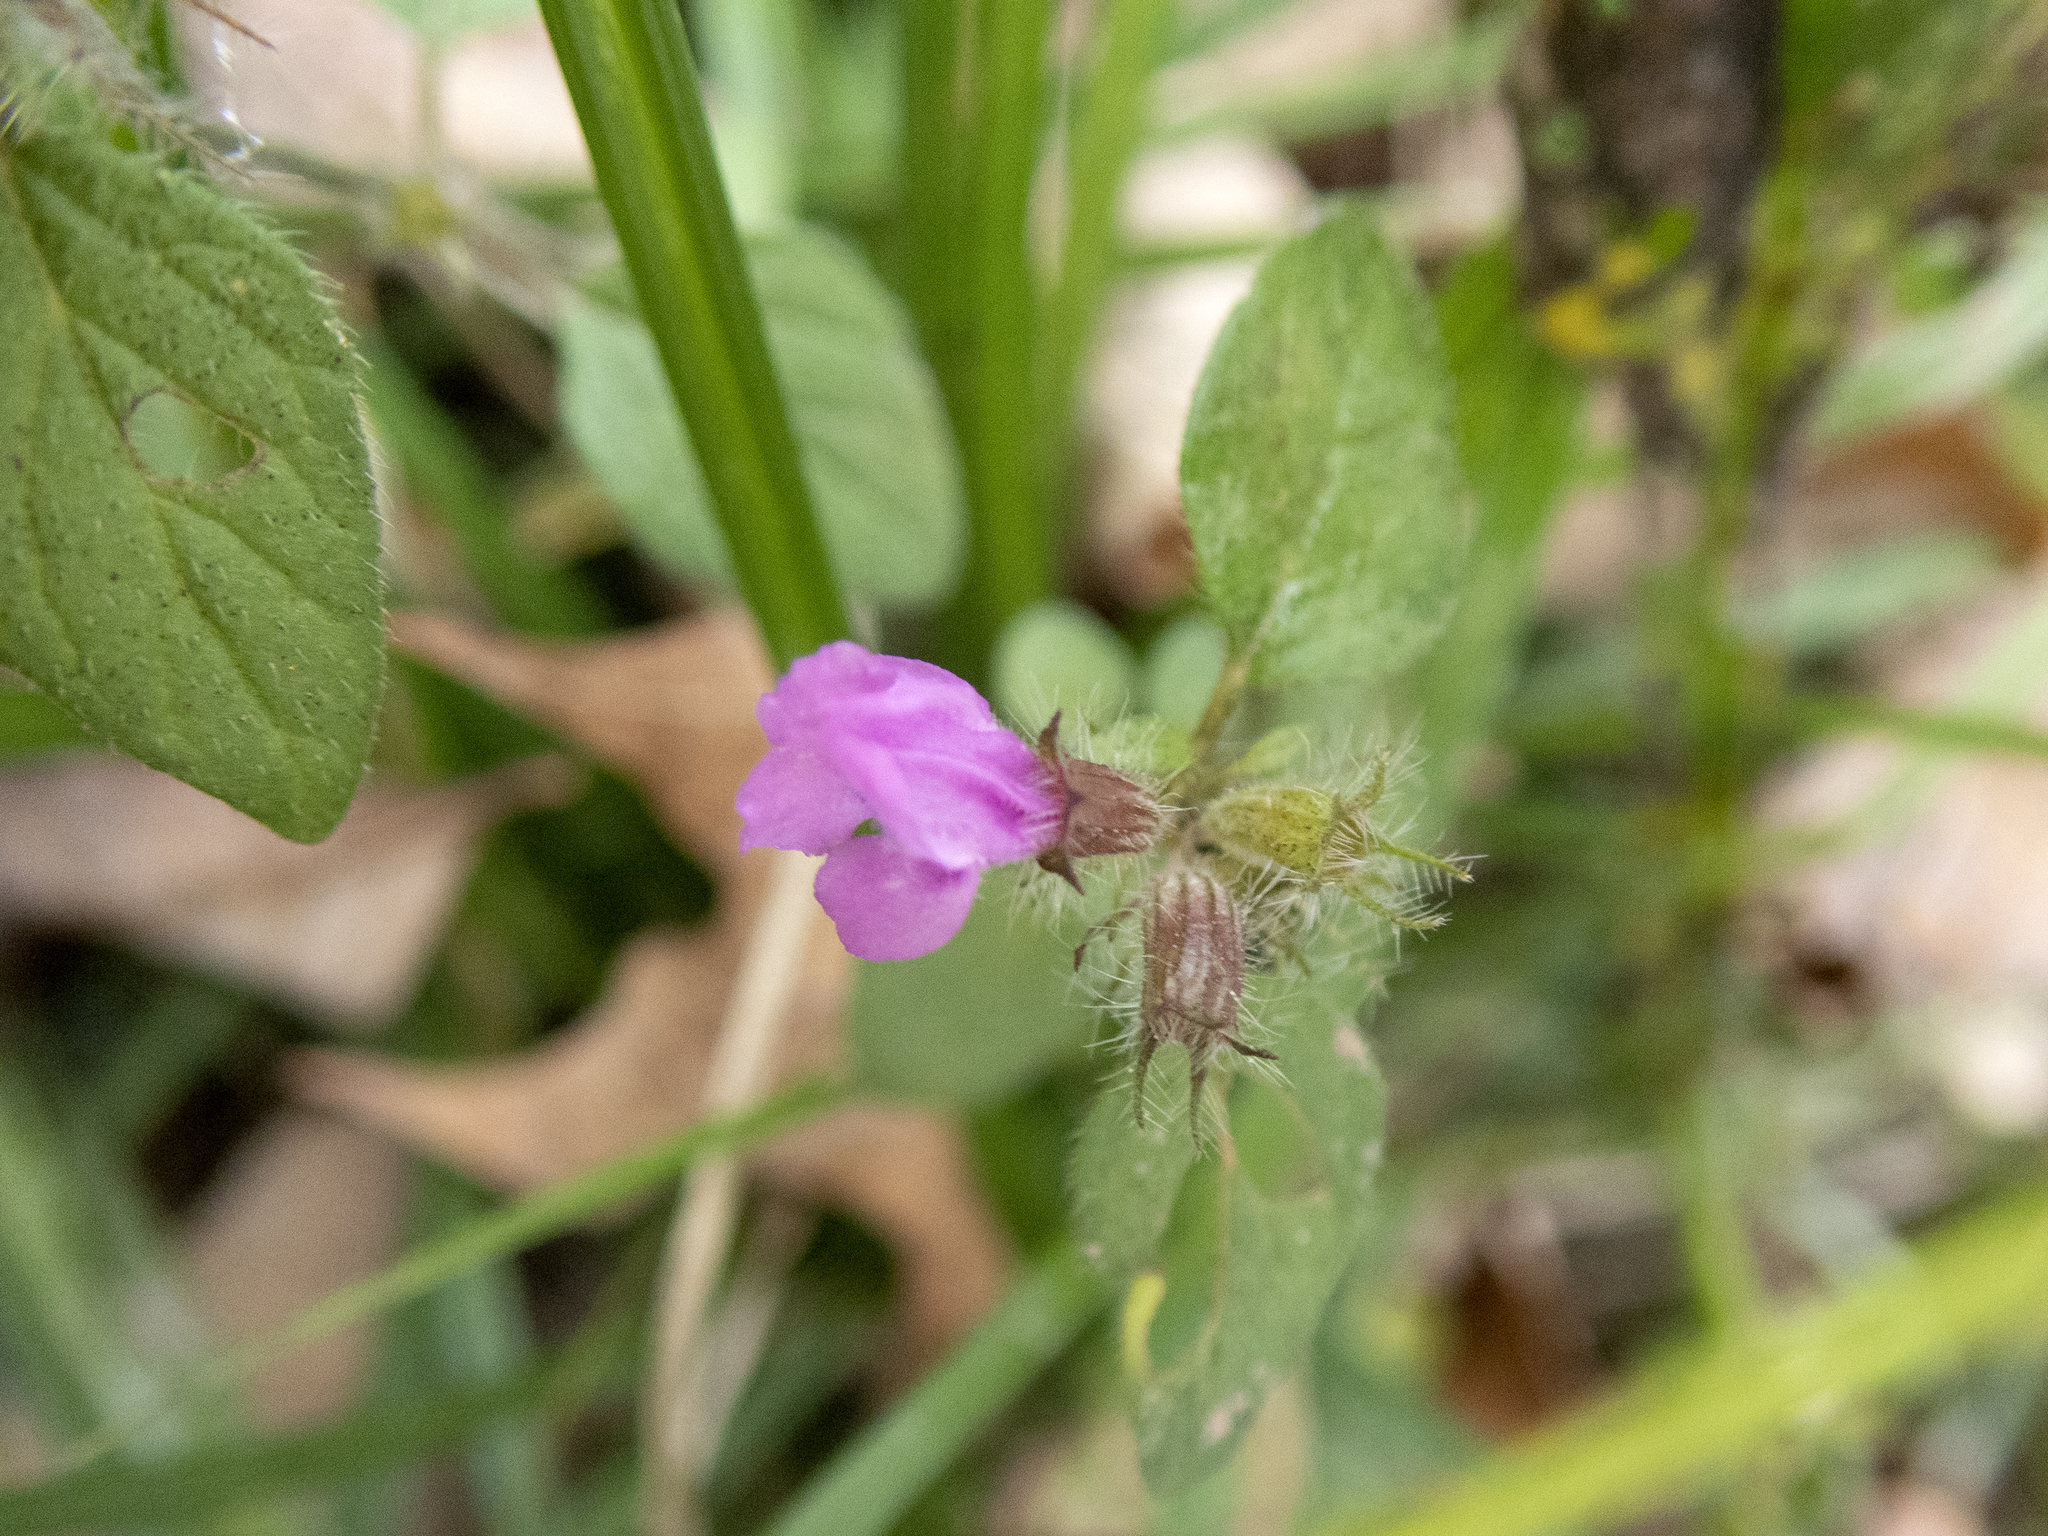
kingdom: Plantae
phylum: Tracheophyta
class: Magnoliopsida
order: Lamiales
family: Lamiaceae
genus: Clinopodium
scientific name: Clinopodium vulgare
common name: Wild basil
